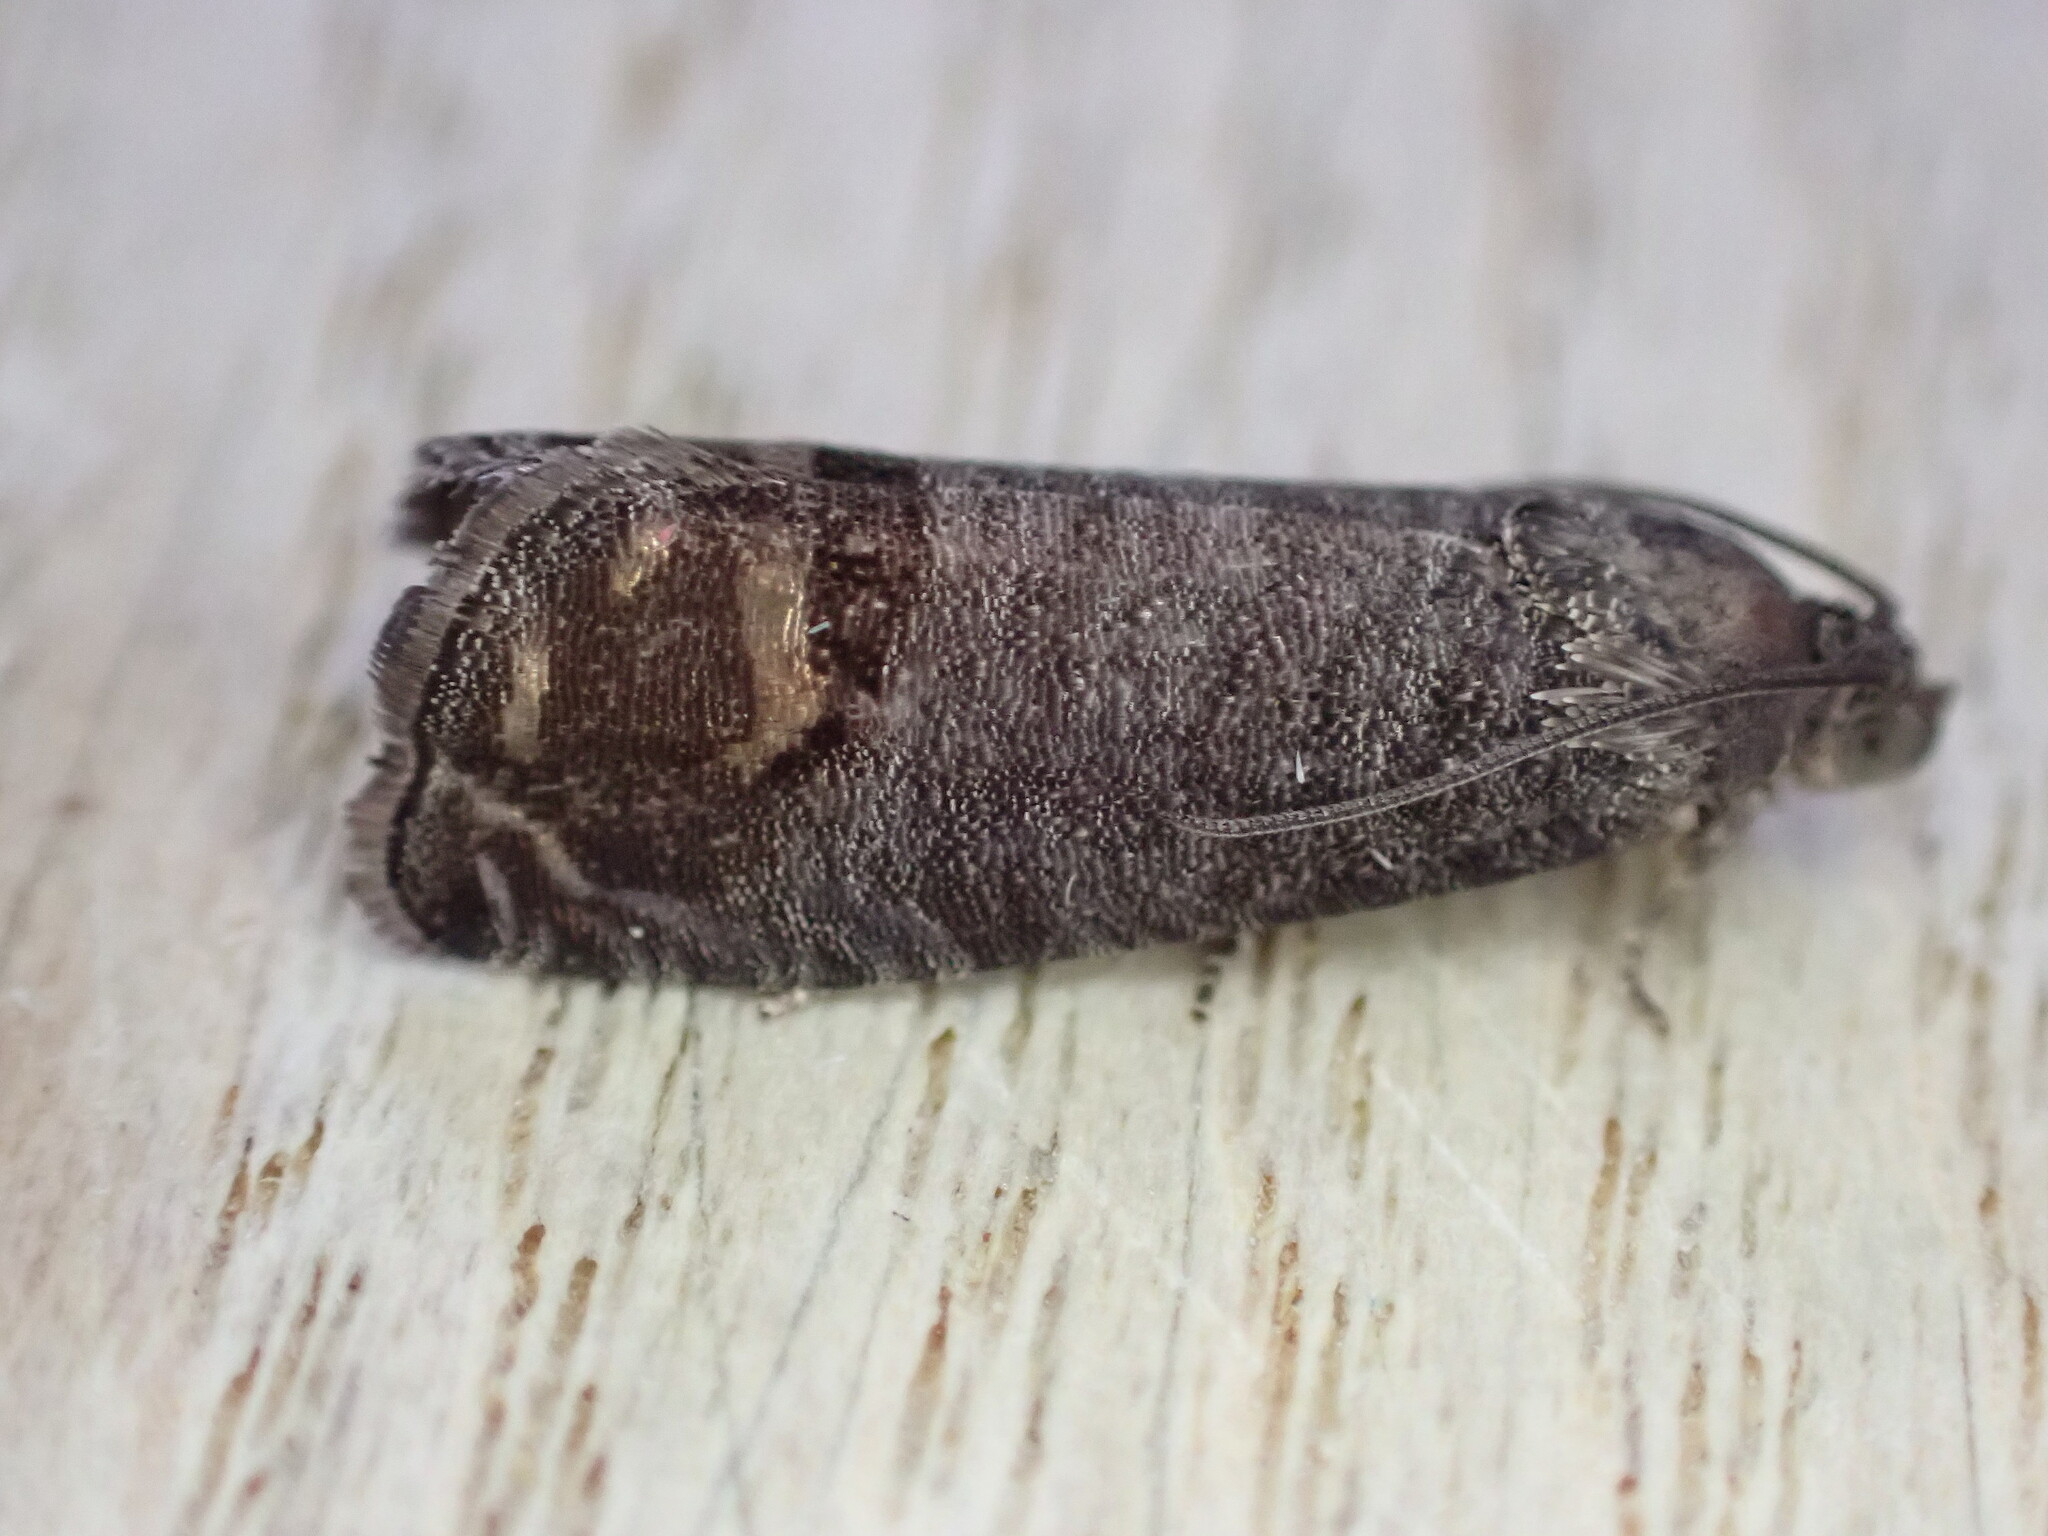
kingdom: Animalia
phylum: Arthropoda
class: Insecta
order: Lepidoptera
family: Tortricidae
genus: Cydia
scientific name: Cydia pomonella
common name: Codling moth
